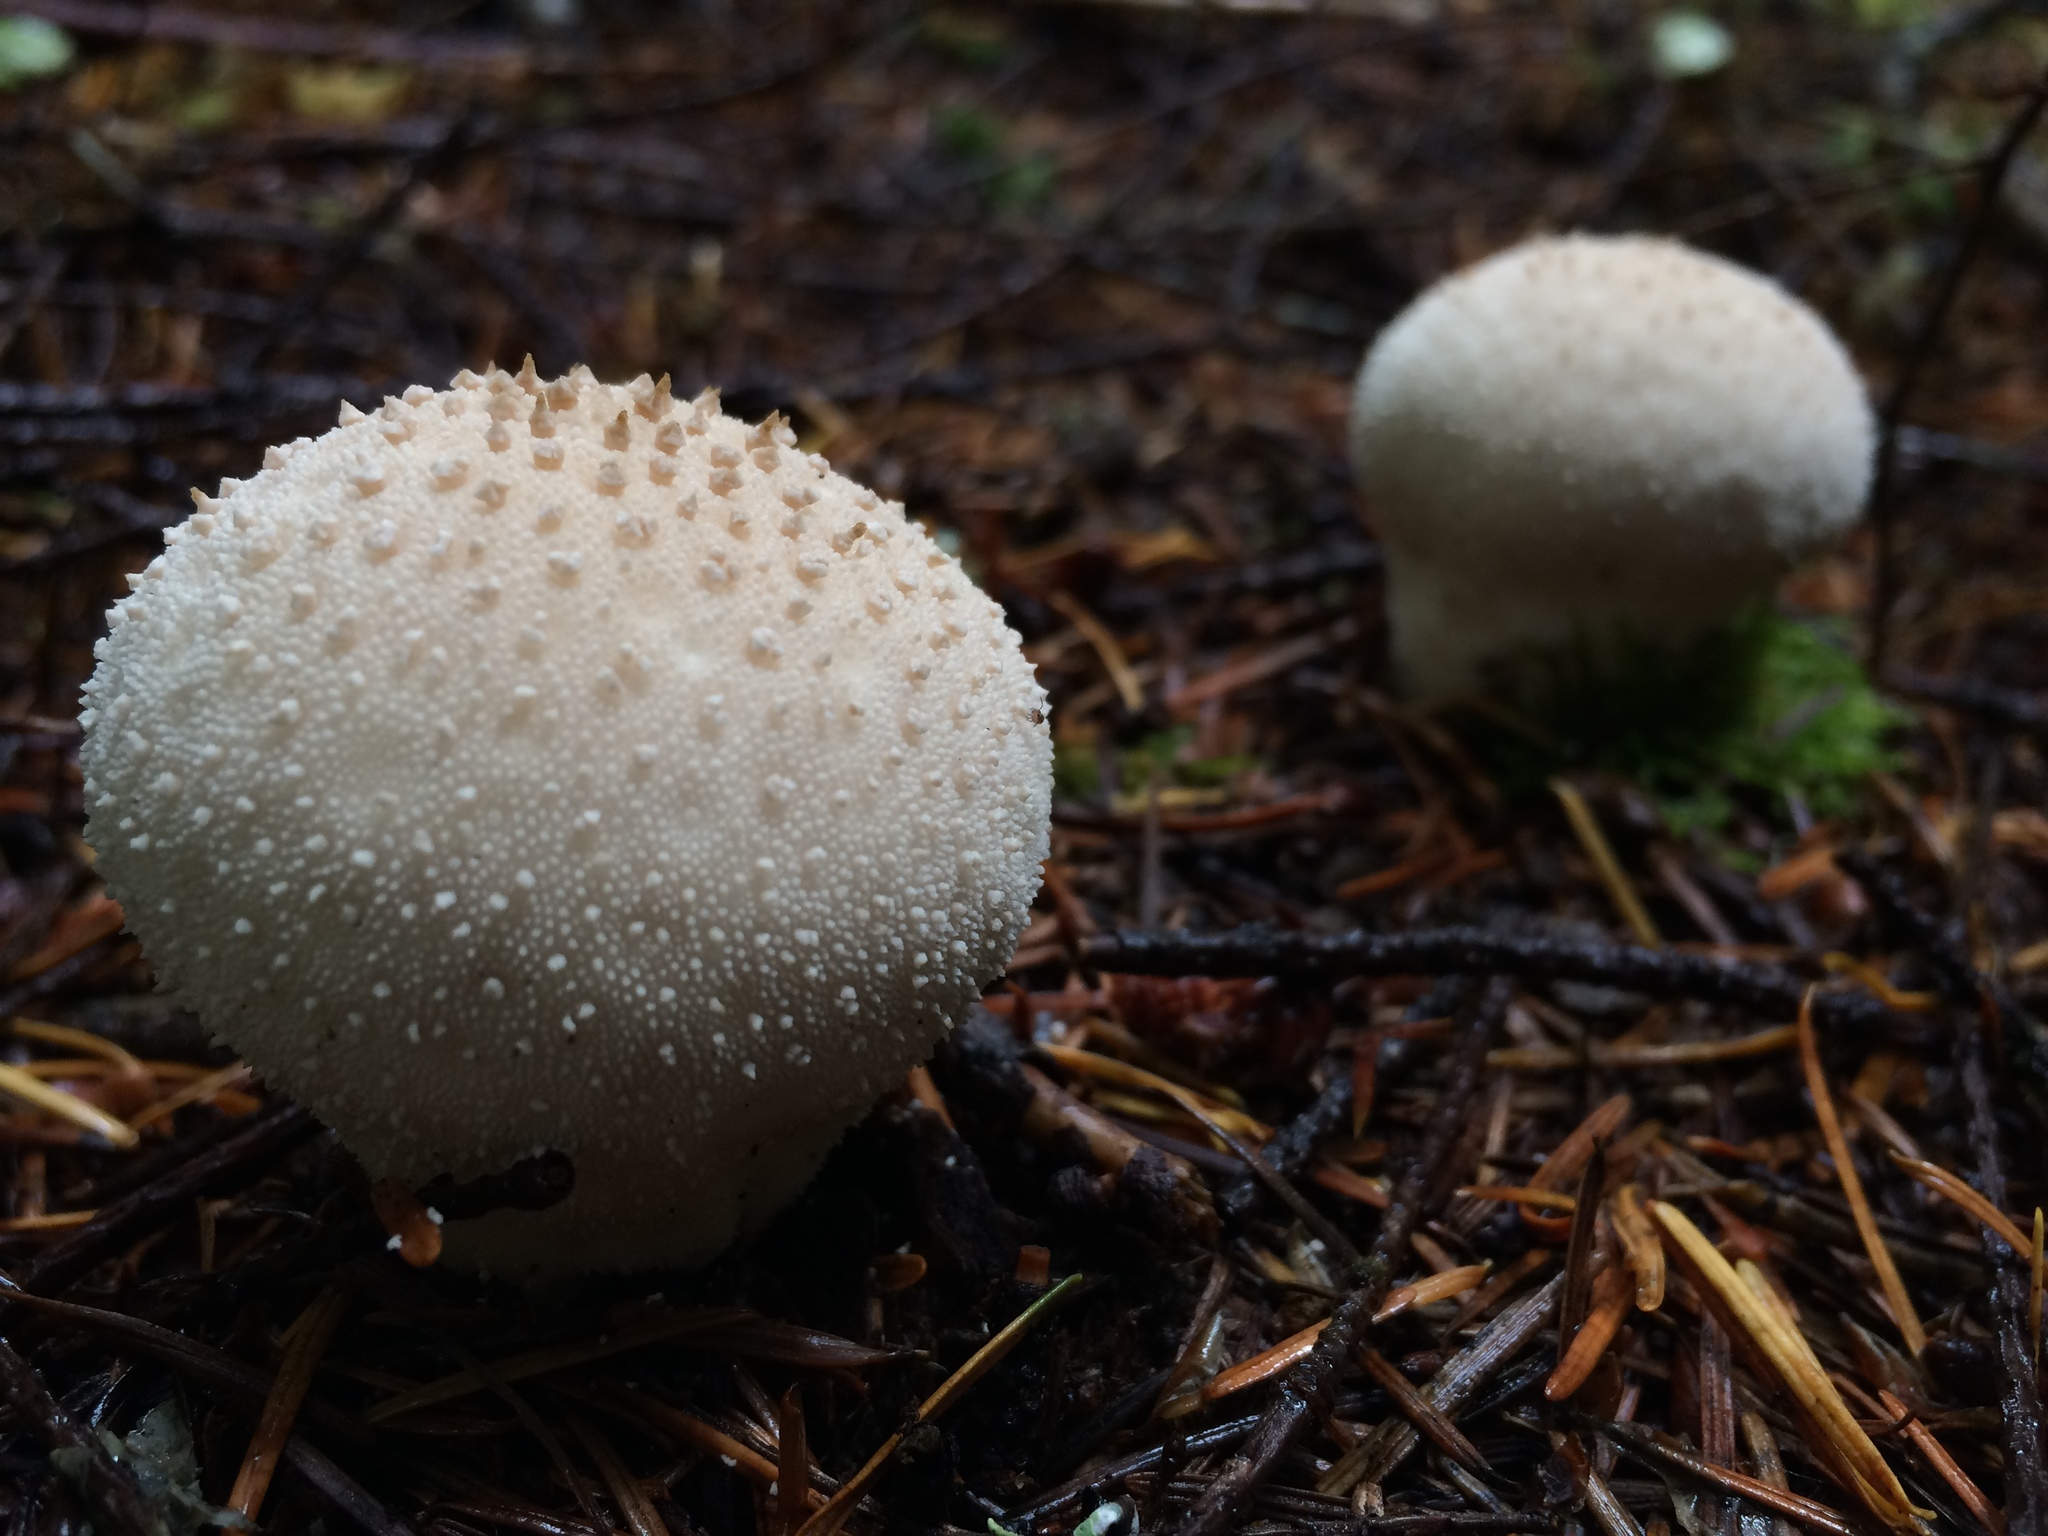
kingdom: Fungi
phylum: Basidiomycota
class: Agaricomycetes
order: Agaricales
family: Lycoperdaceae
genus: Lycoperdon
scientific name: Lycoperdon perlatum
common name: Common puffball
